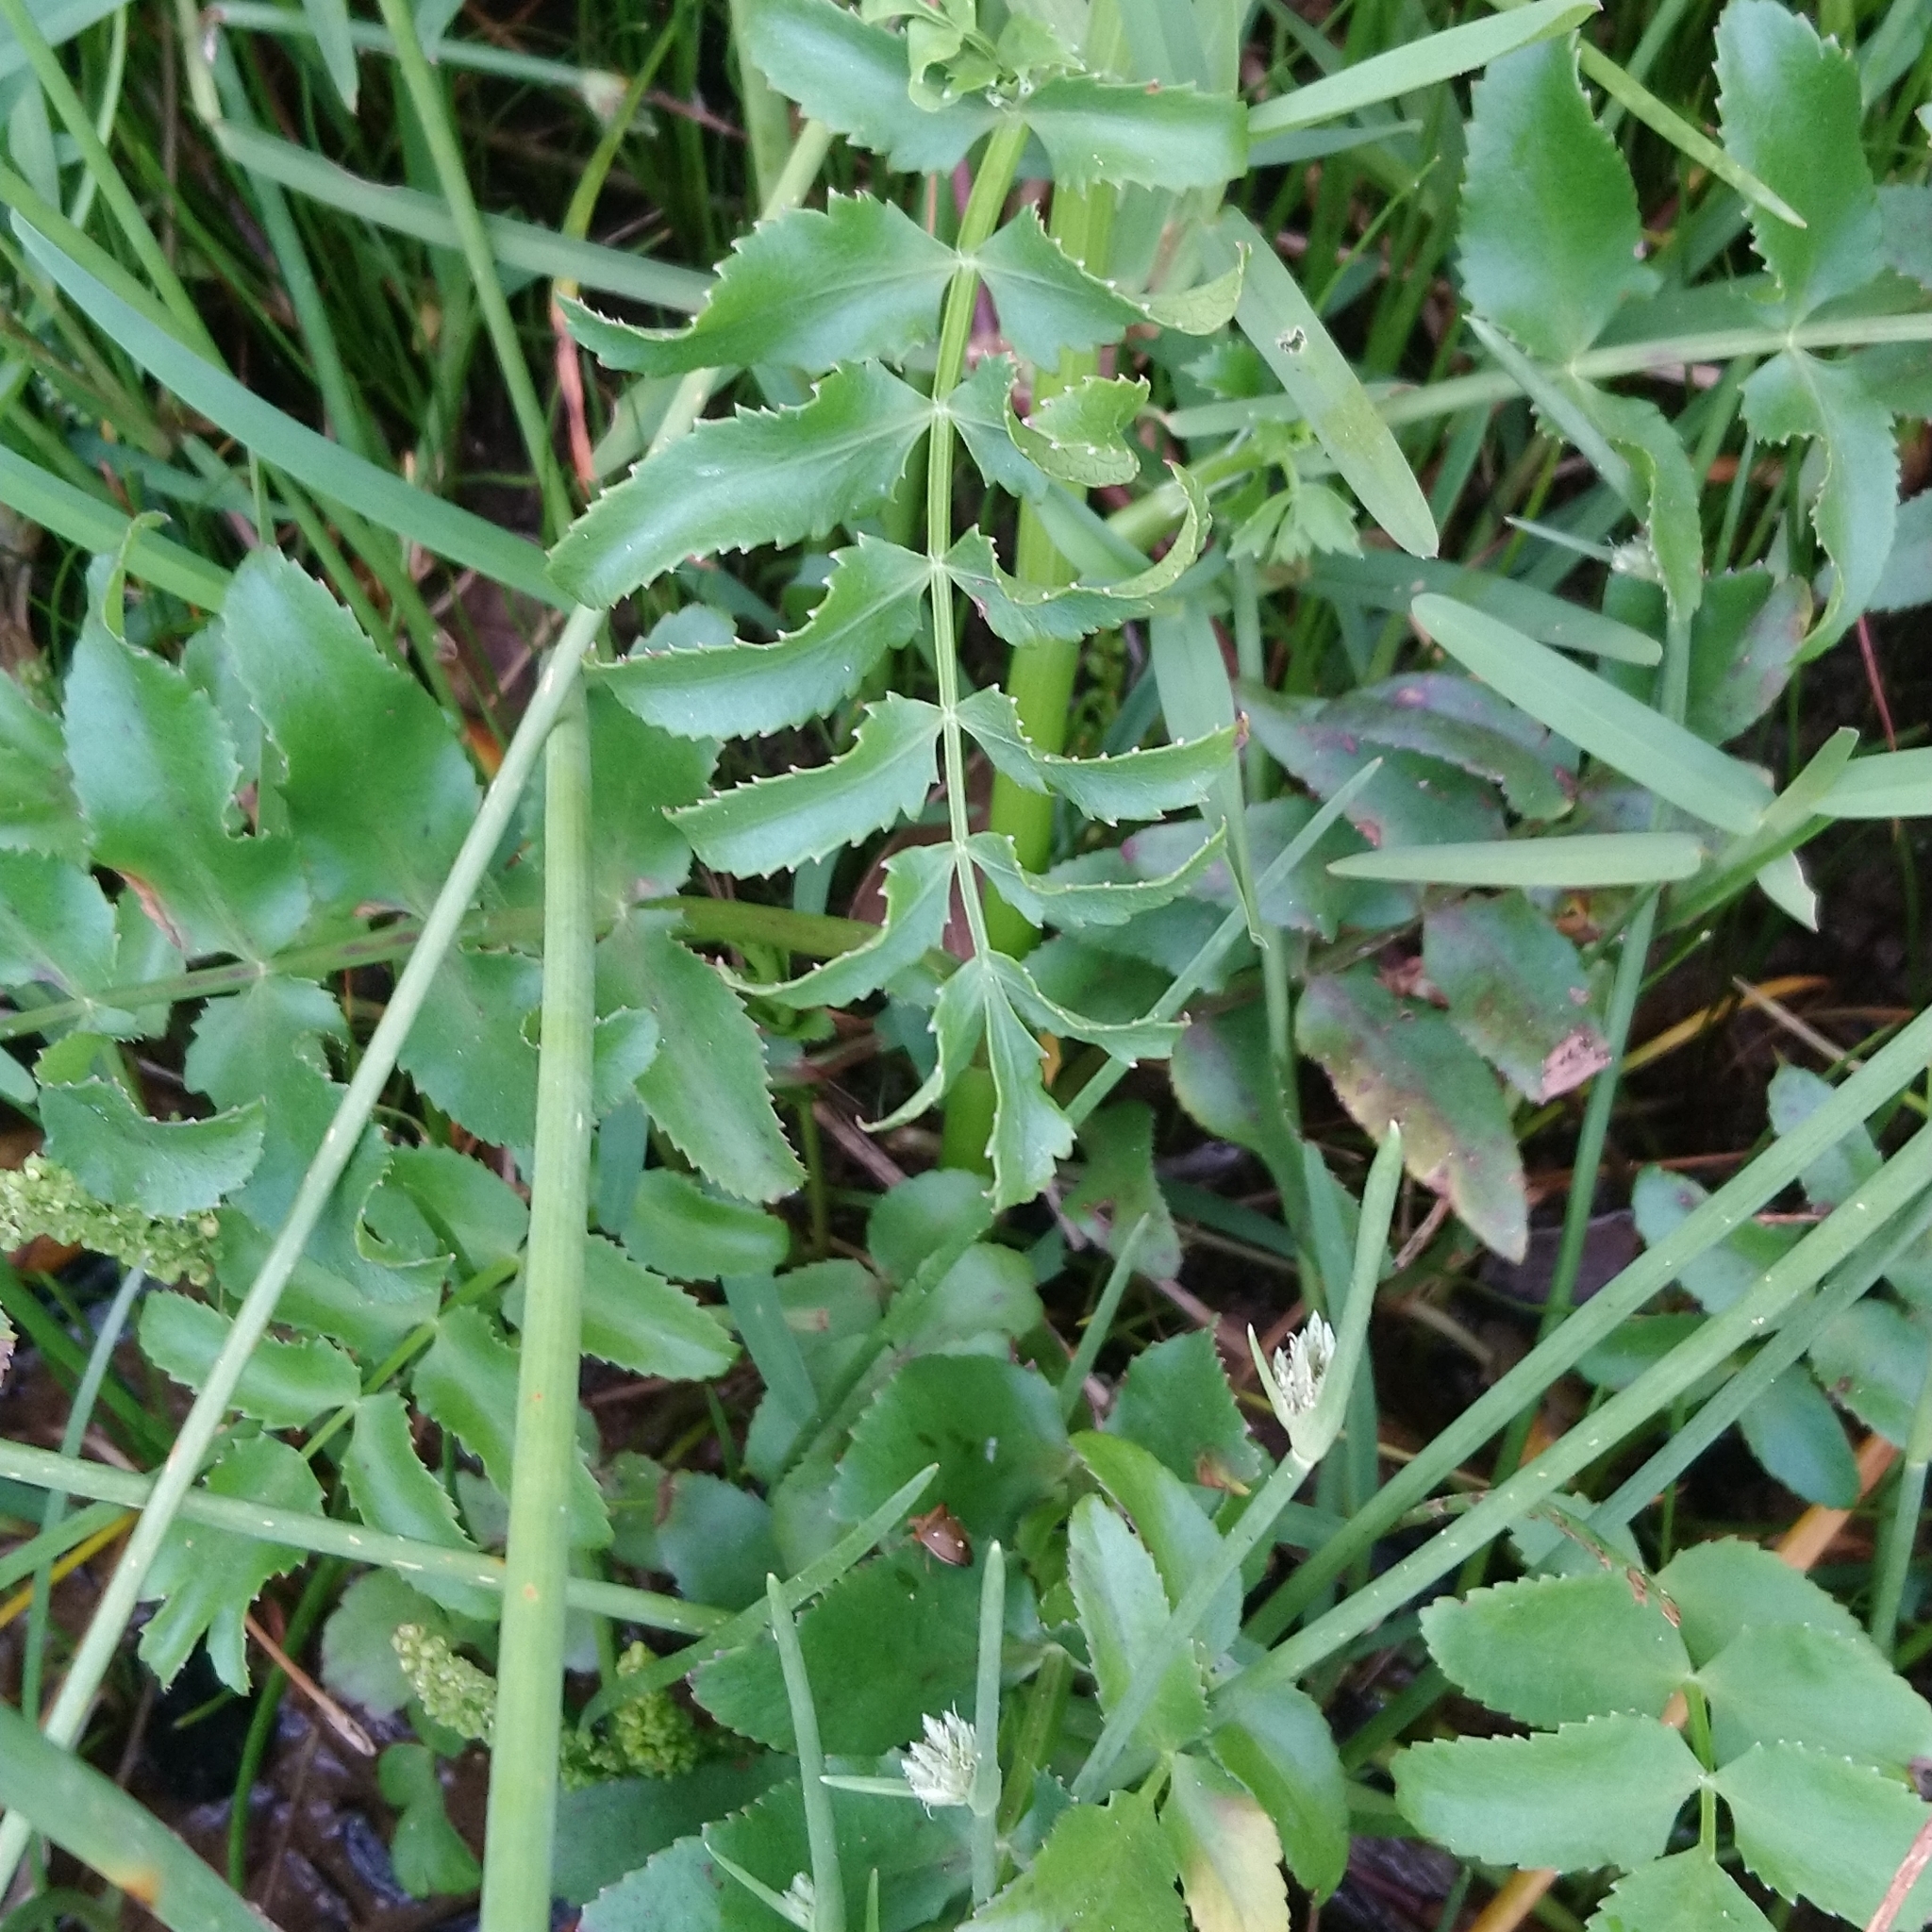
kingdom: Plantae
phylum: Tracheophyta
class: Magnoliopsida
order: Apiales
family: Apiaceae
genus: Berula
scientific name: Berula thunbergii
